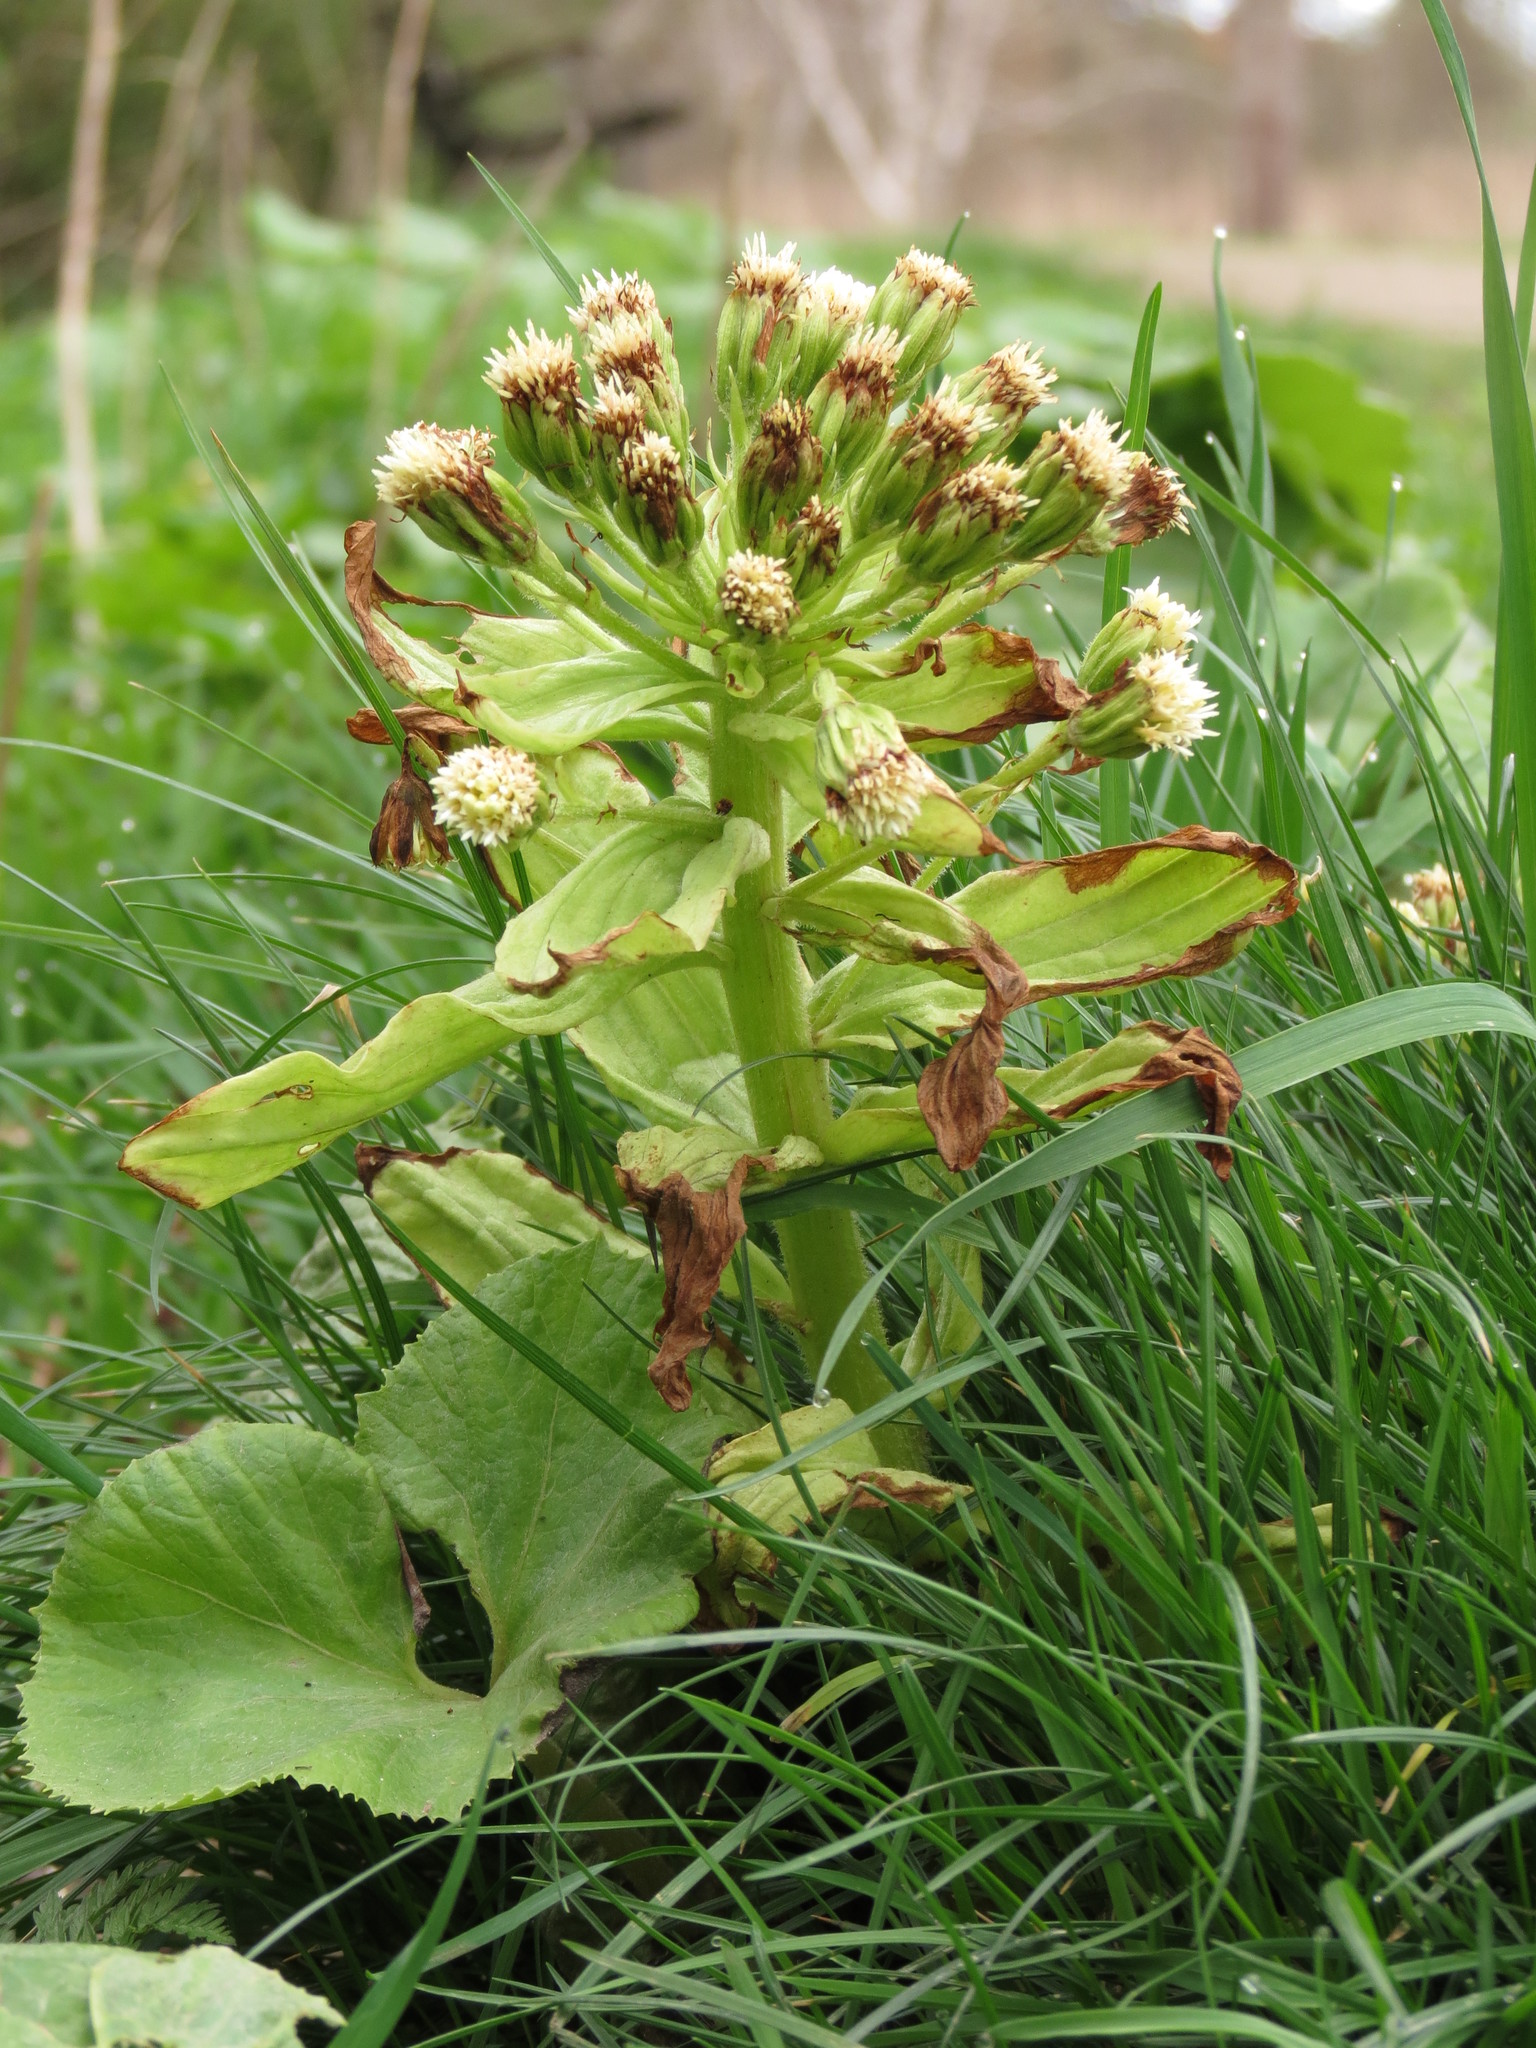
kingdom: Plantae
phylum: Tracheophyta
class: Magnoliopsida
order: Asterales
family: Asteraceae
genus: Petasites
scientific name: Petasites japonicus
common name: Giant butterbur
